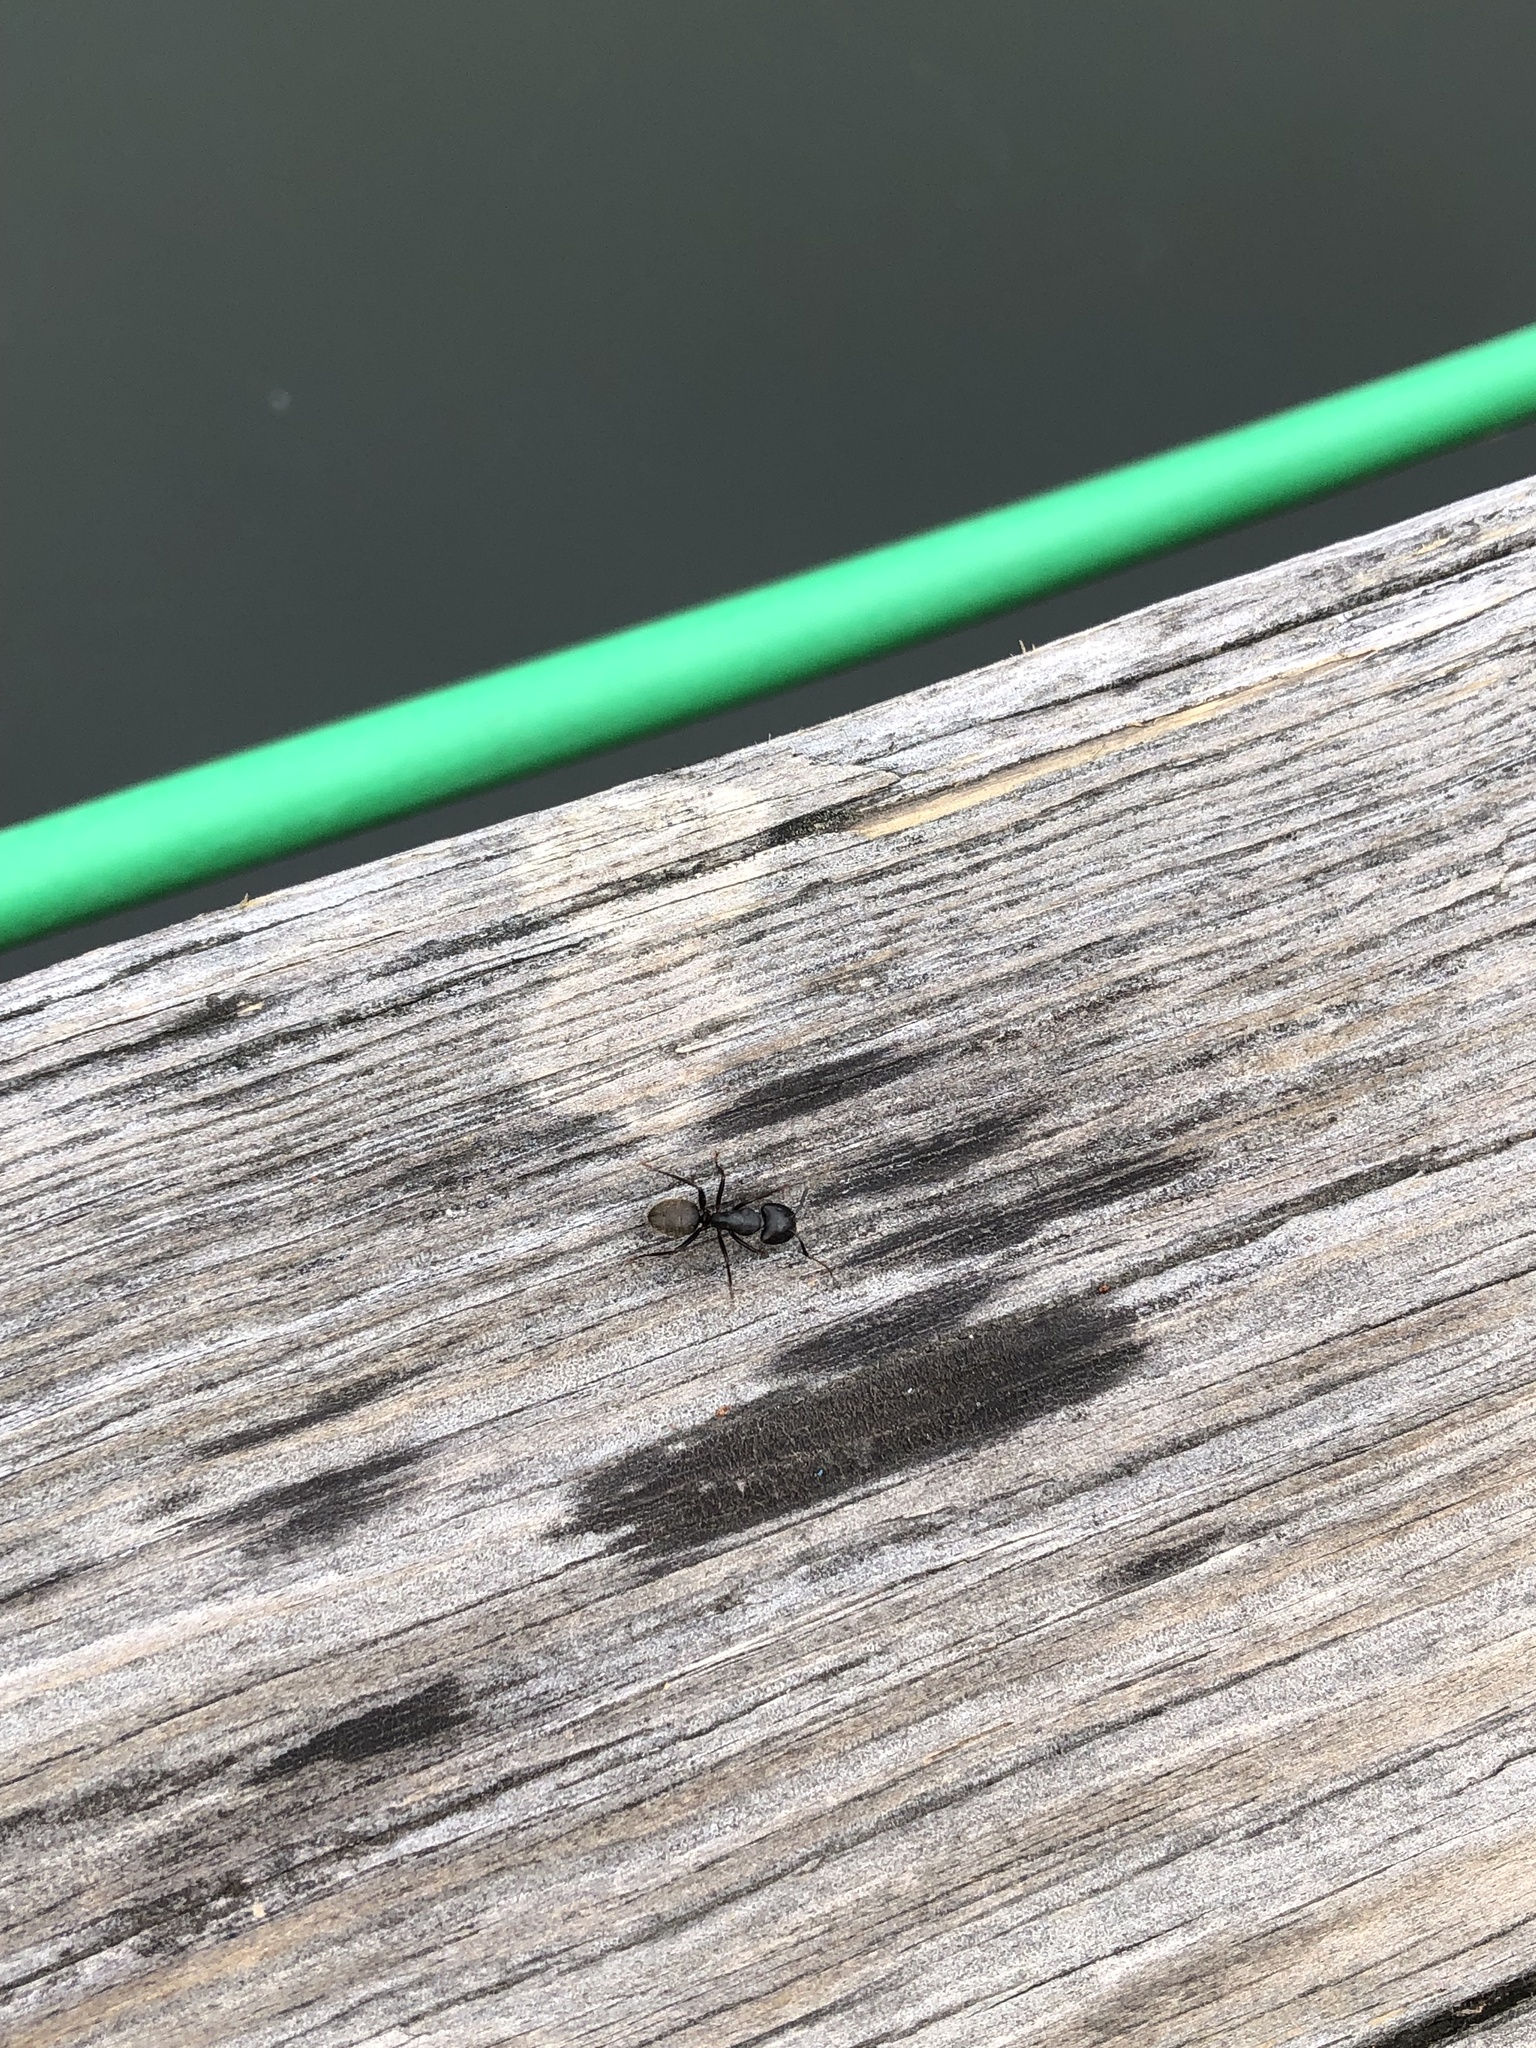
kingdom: Animalia
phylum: Arthropoda
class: Insecta
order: Hymenoptera
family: Formicidae
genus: Camponotus
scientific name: Camponotus pennsylvanicus
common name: Black carpenter ant
